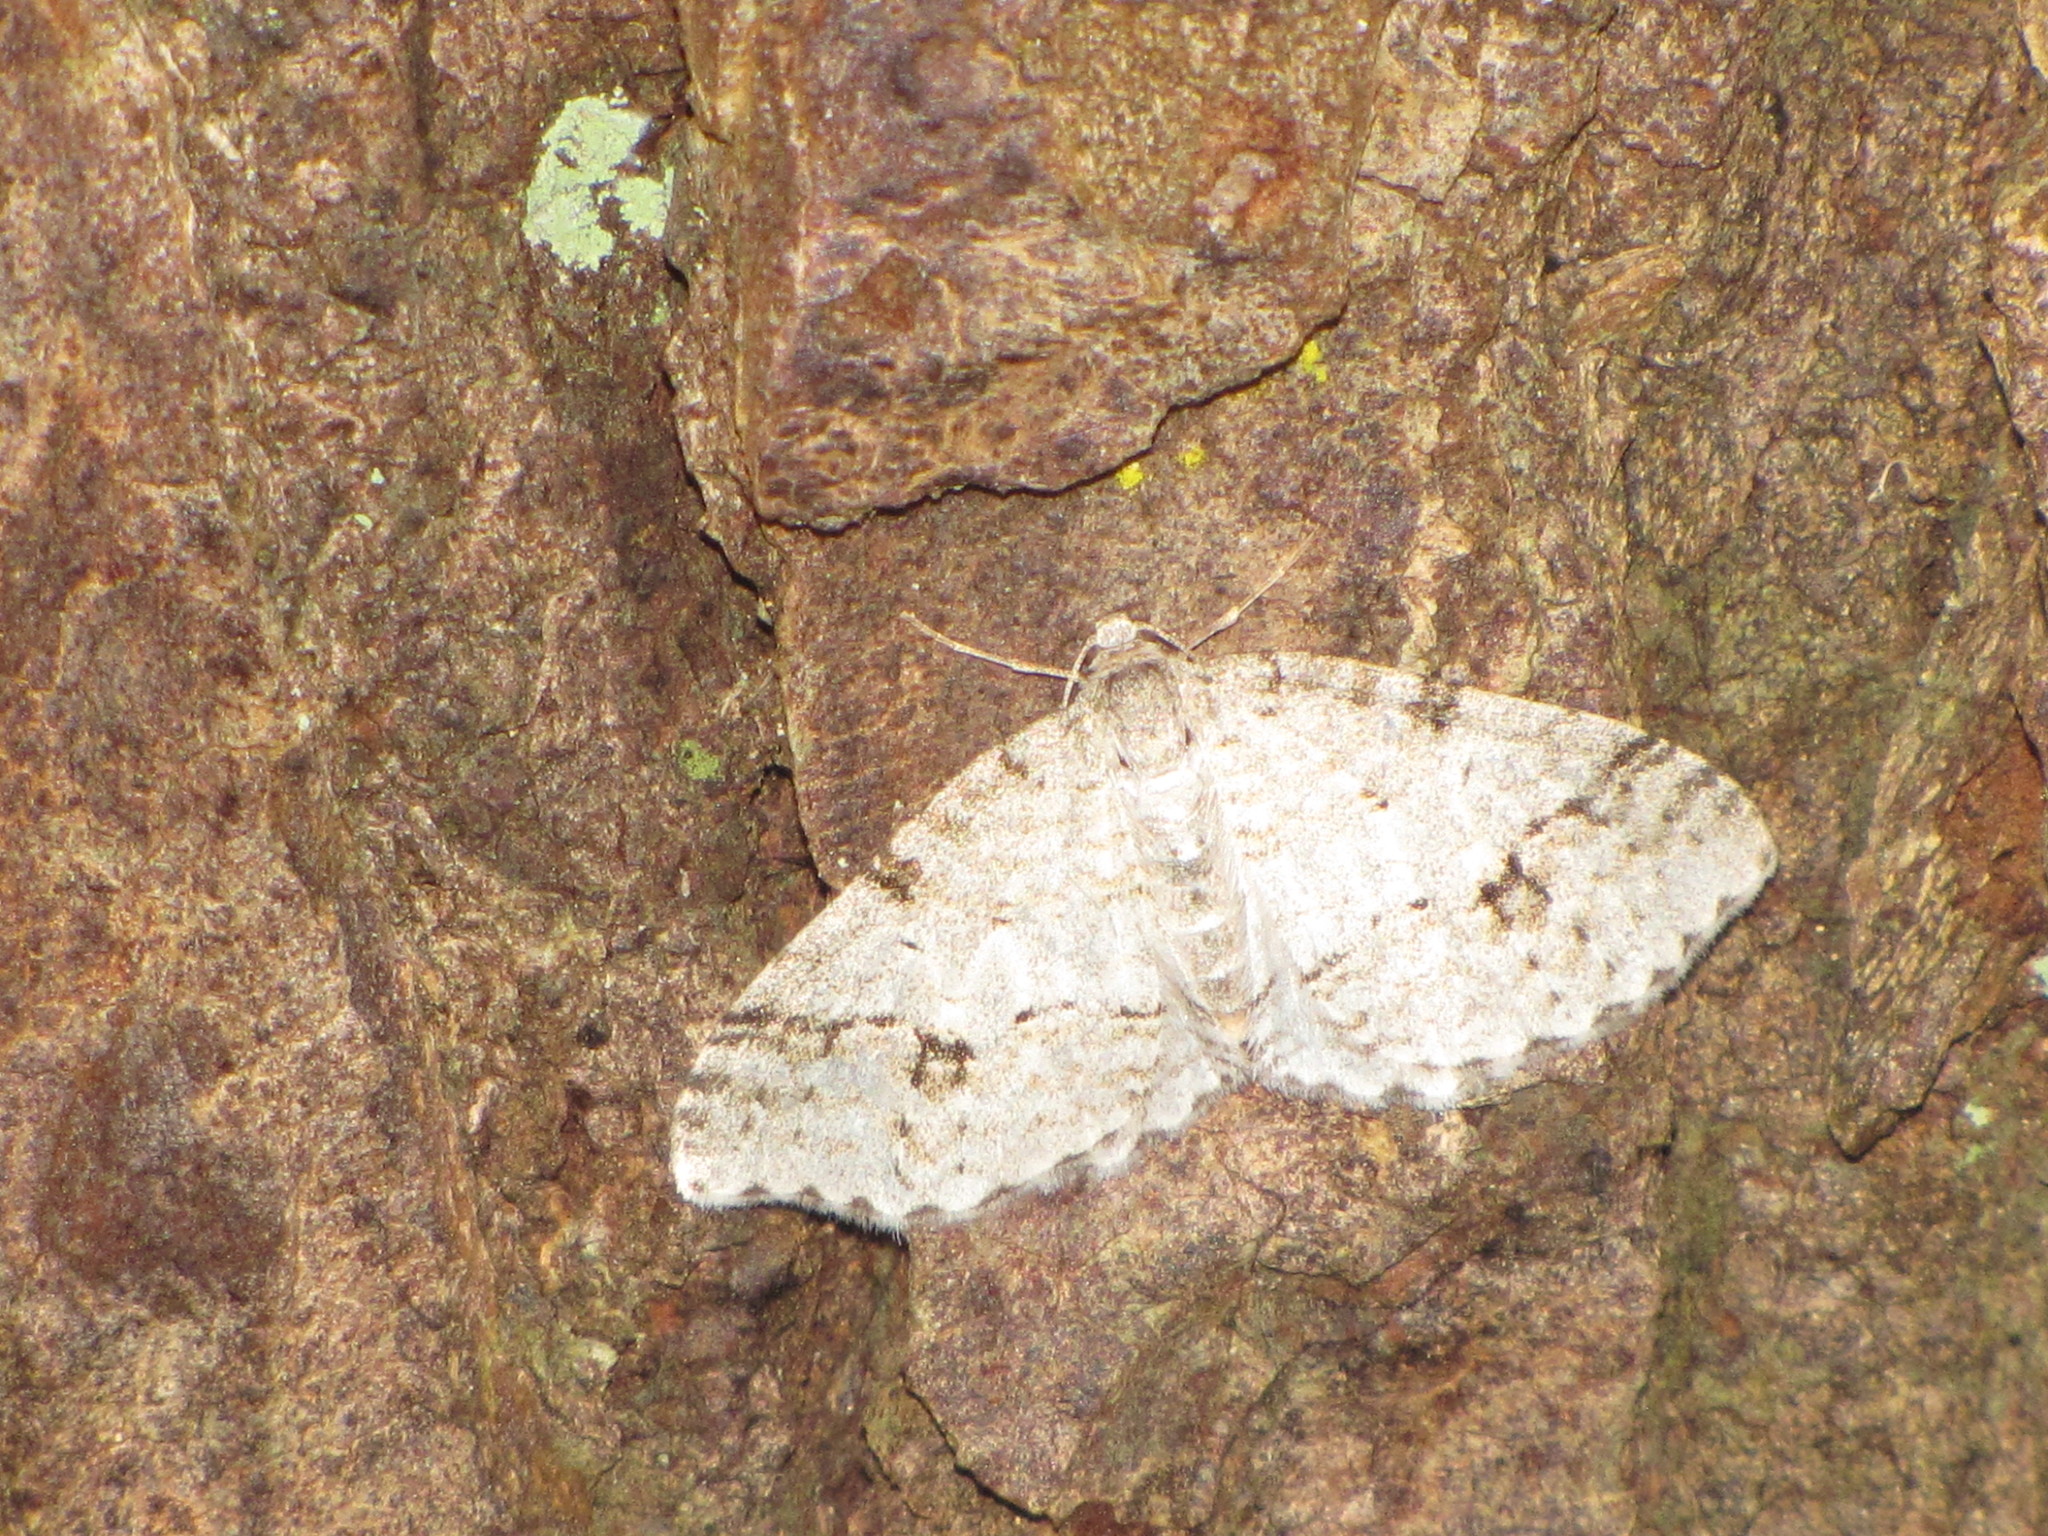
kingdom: Animalia
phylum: Arthropoda
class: Insecta
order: Lepidoptera
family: Geometridae
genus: Venusia
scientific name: Venusia cambrica
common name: Welsh wave
